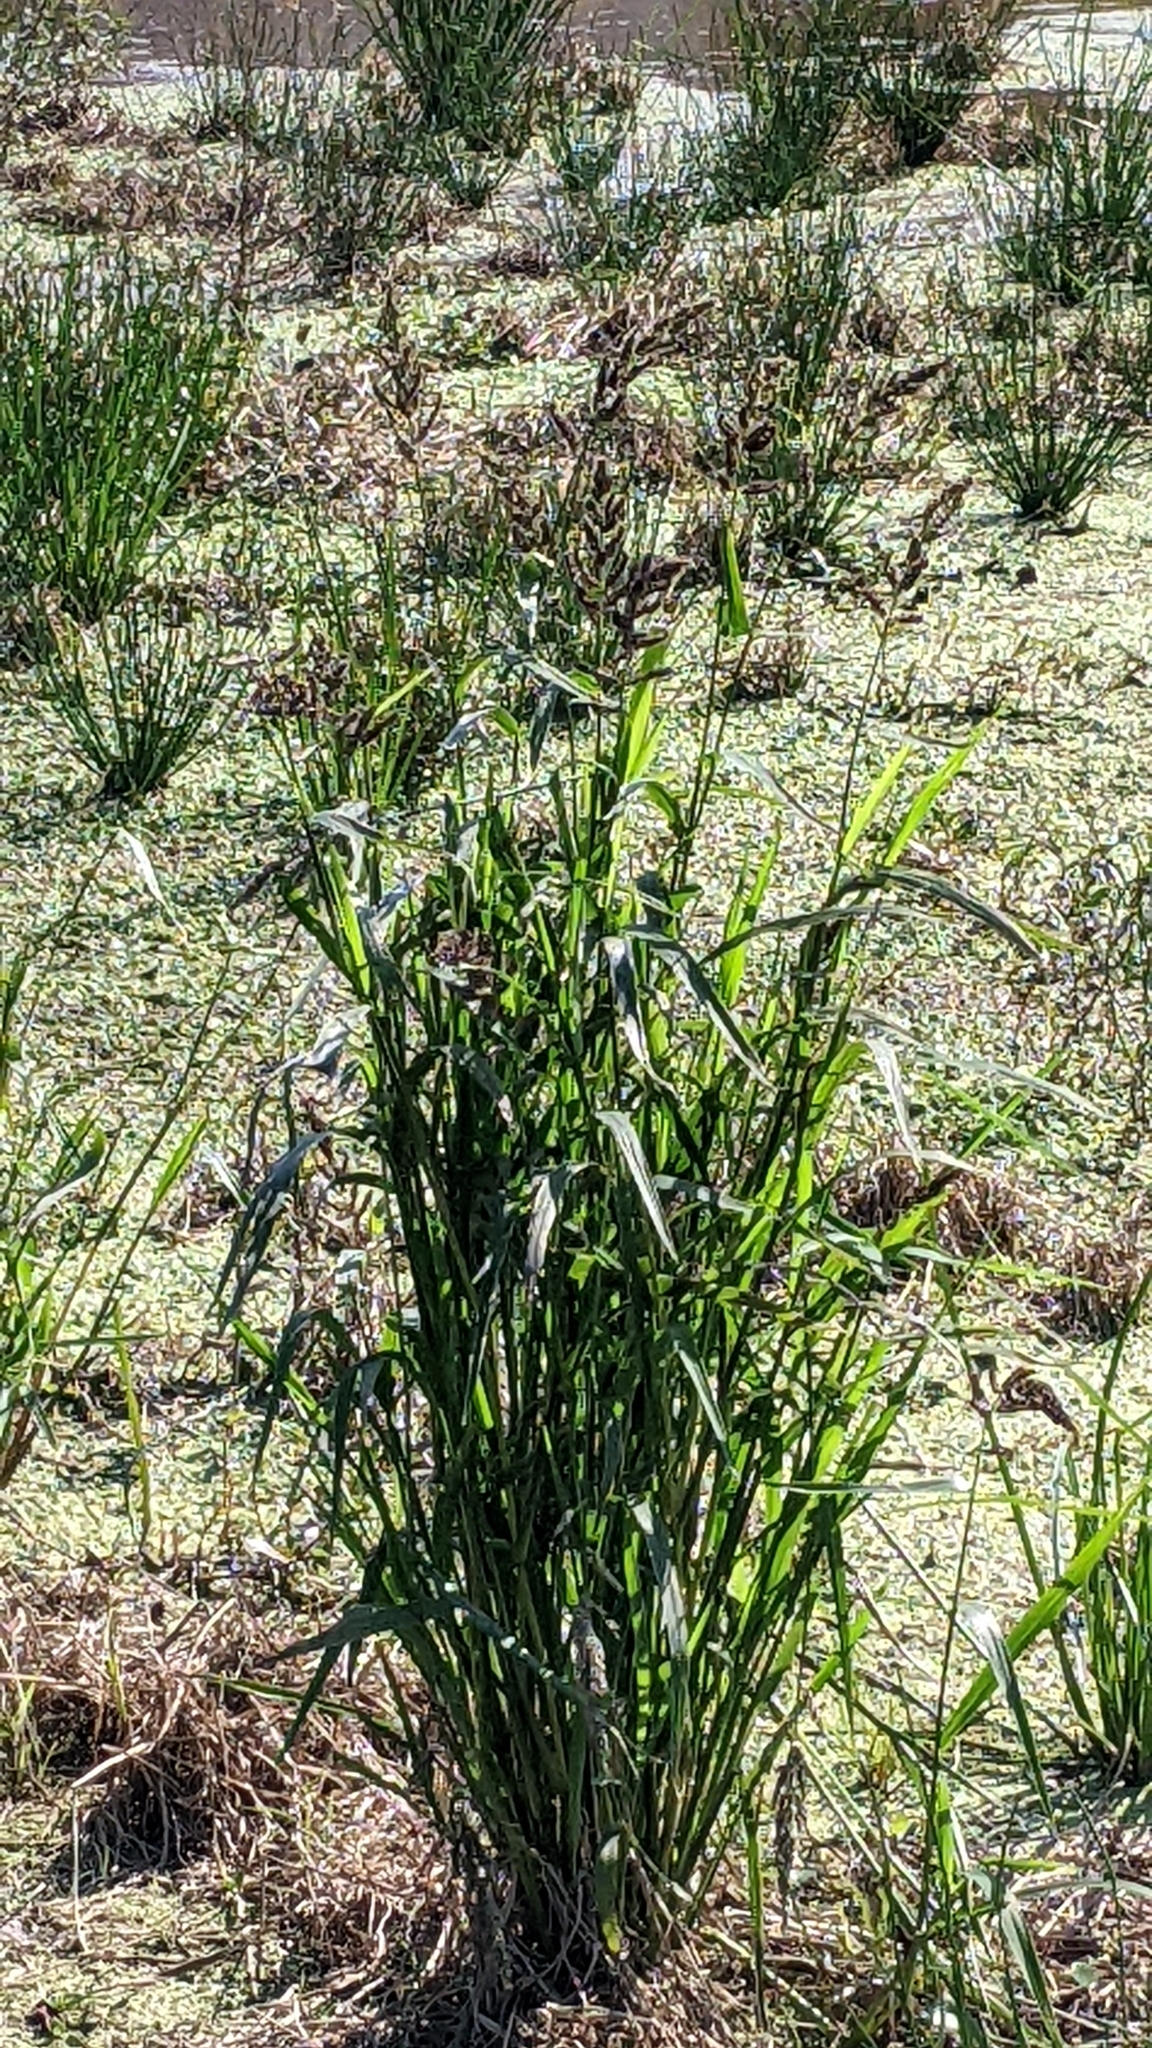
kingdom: Plantae
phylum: Tracheophyta
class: Liliopsida
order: Poales
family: Poaceae
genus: Echinochloa
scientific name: Echinochloa crus-galli
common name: Cockspur
